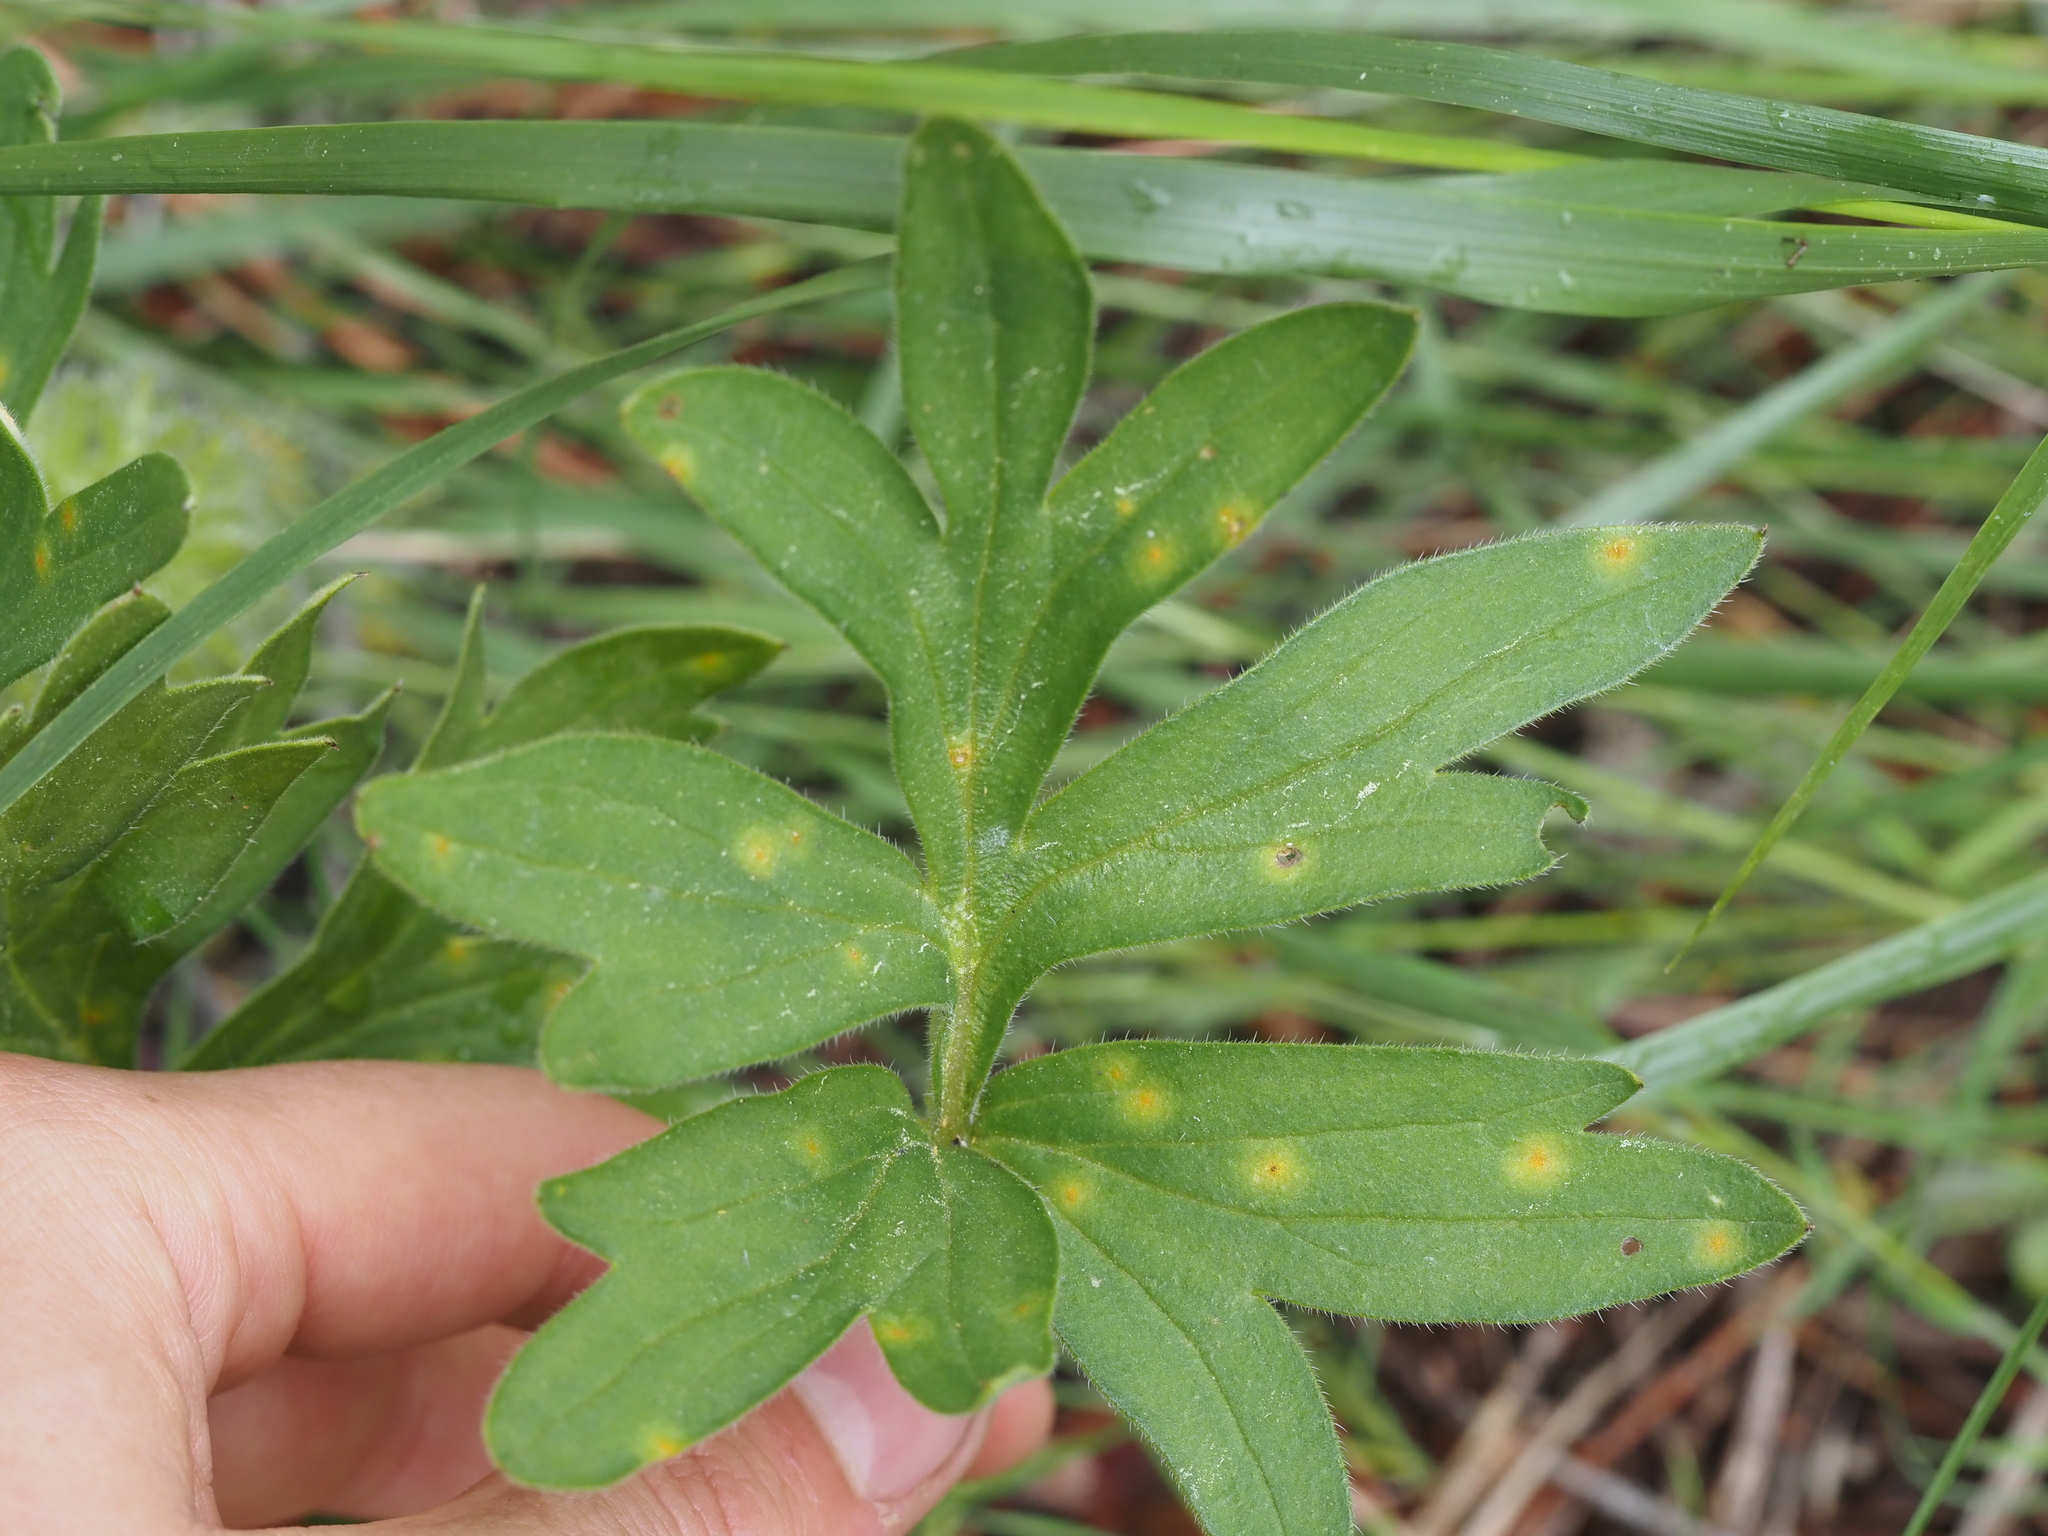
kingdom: Plantae
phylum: Tracheophyta
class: Magnoliopsida
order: Boraginales
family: Hydrophyllaceae
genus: Hydrophyllum
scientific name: Hydrophyllum capitatum
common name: Woollen-breeches
